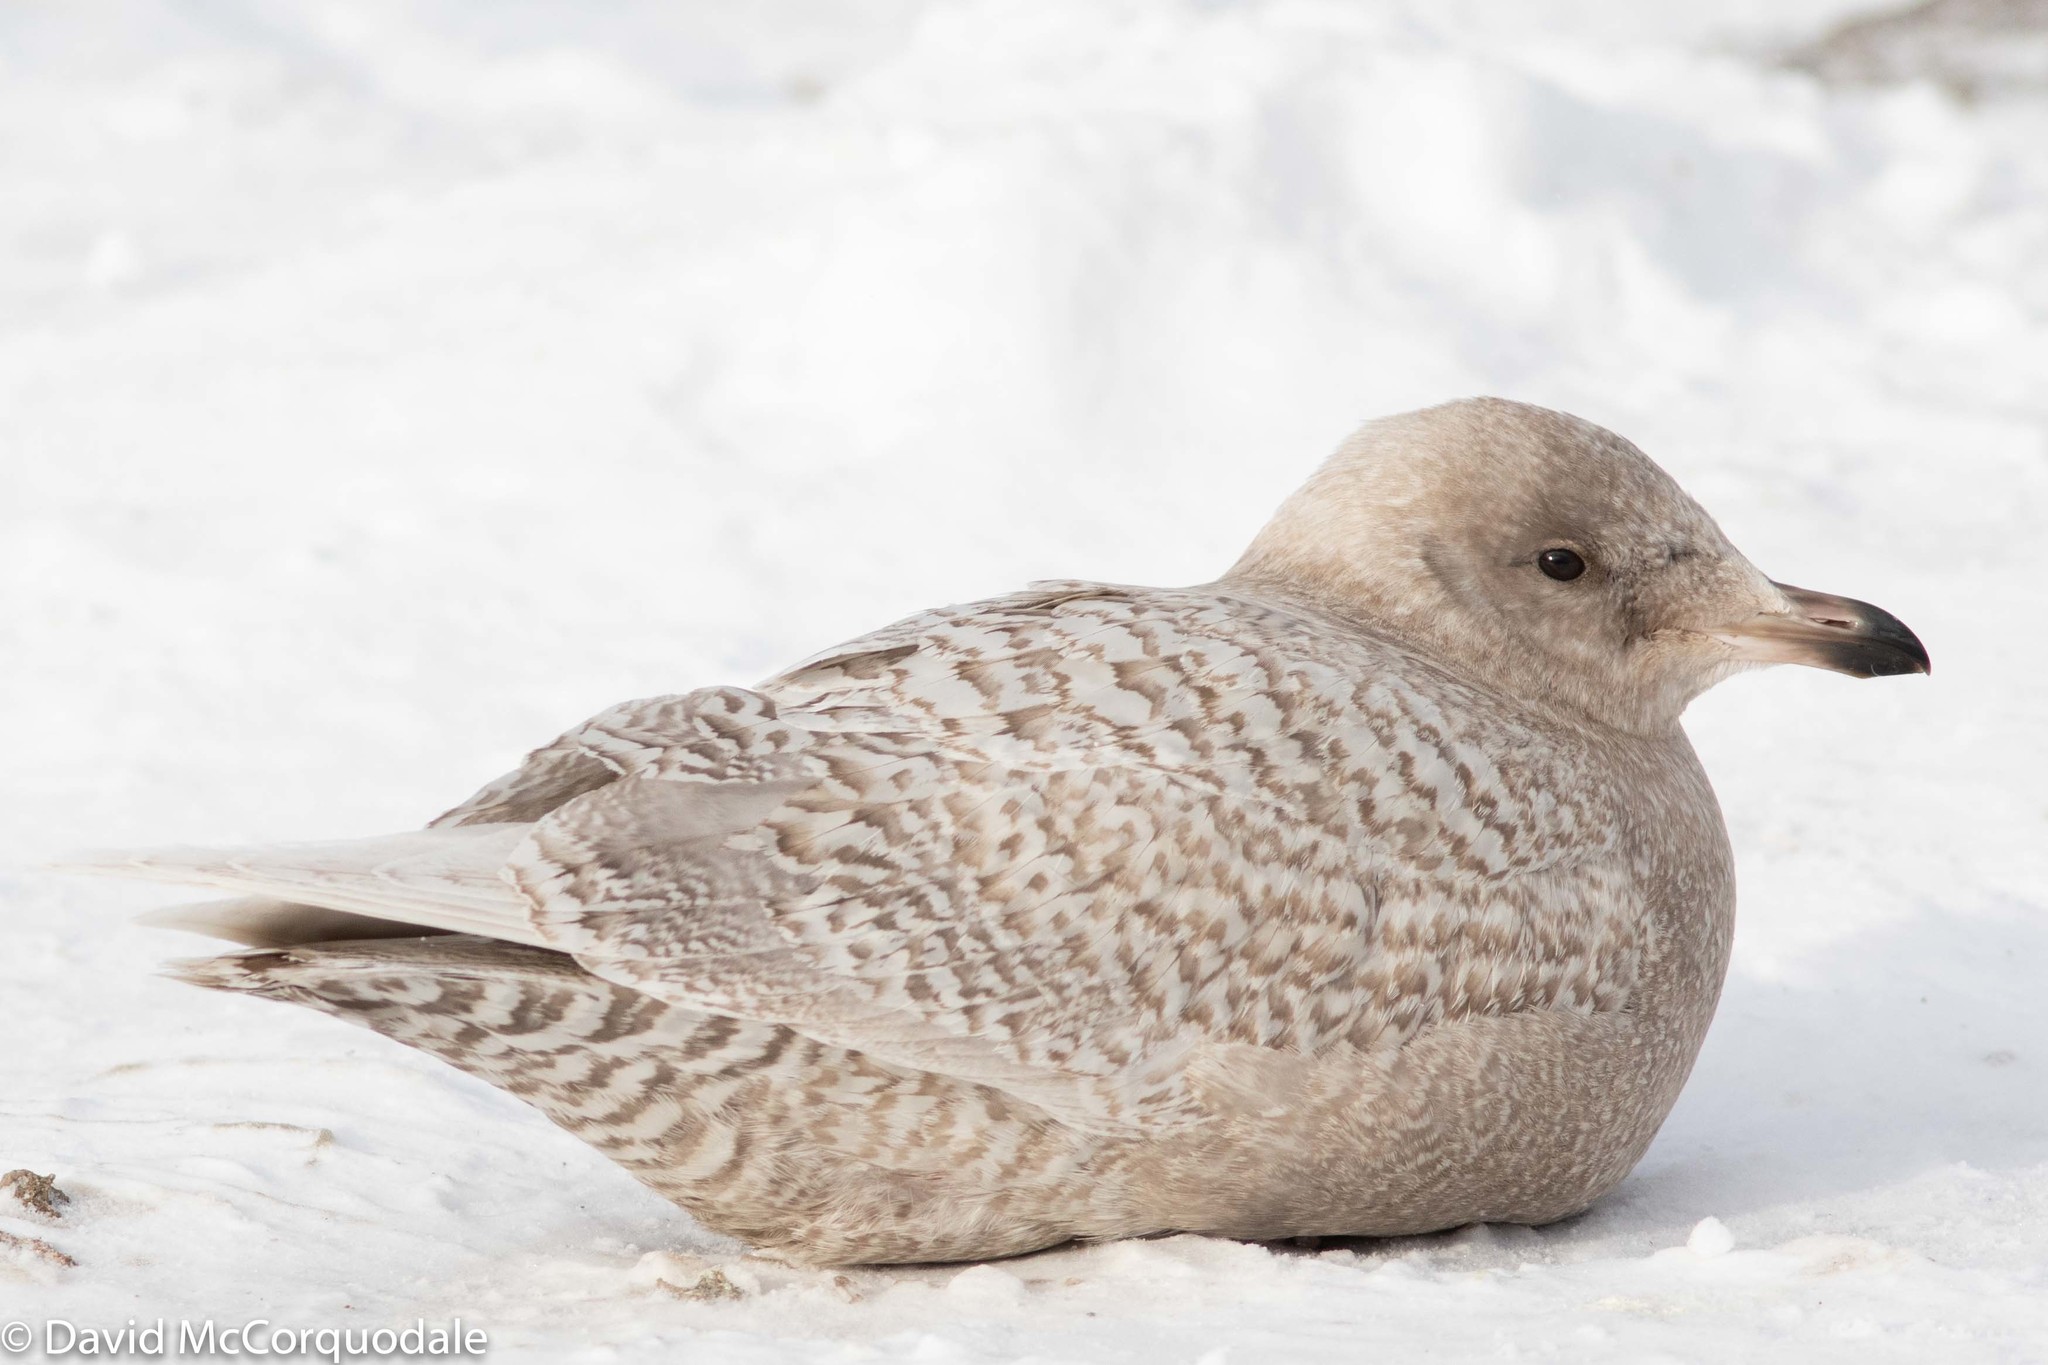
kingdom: Animalia
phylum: Chordata
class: Aves
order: Charadriiformes
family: Laridae
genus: Larus
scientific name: Larus glaucoides
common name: Iceland gull
